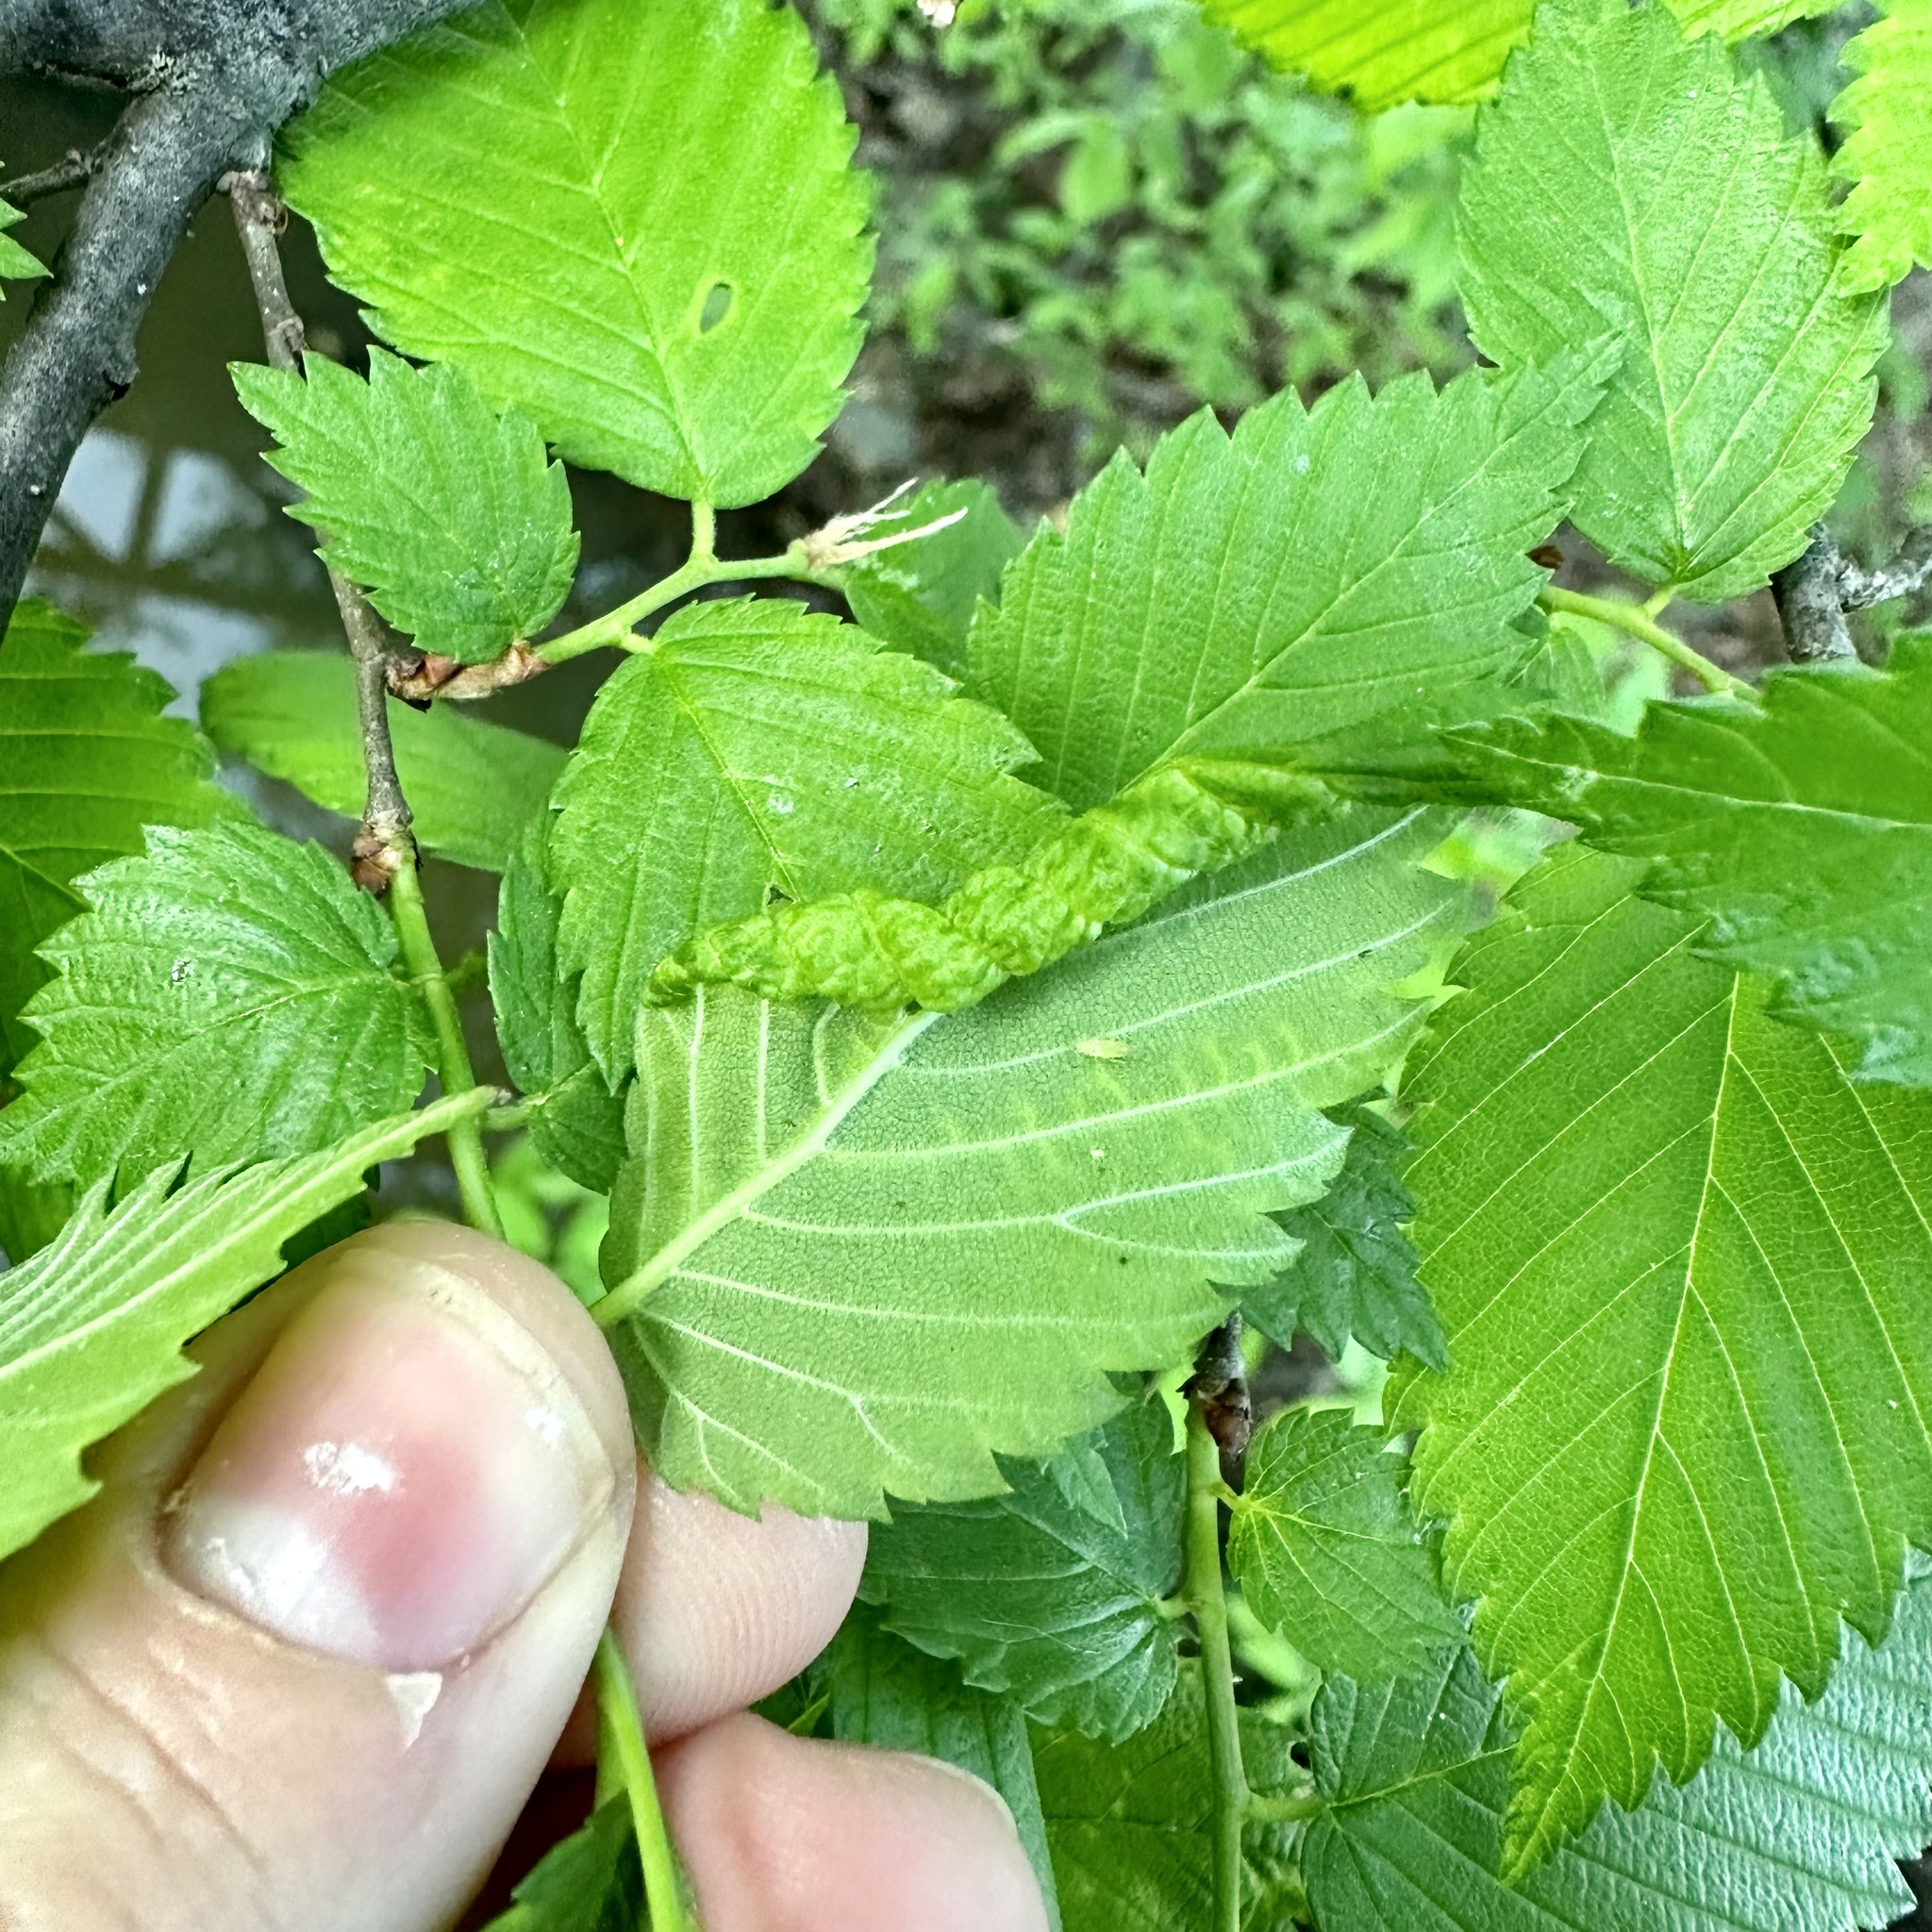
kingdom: Animalia
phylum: Arthropoda
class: Insecta
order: Hemiptera
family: Aphididae
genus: Eriosoma
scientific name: Eriosoma americanum
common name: Woolly elm aphid
